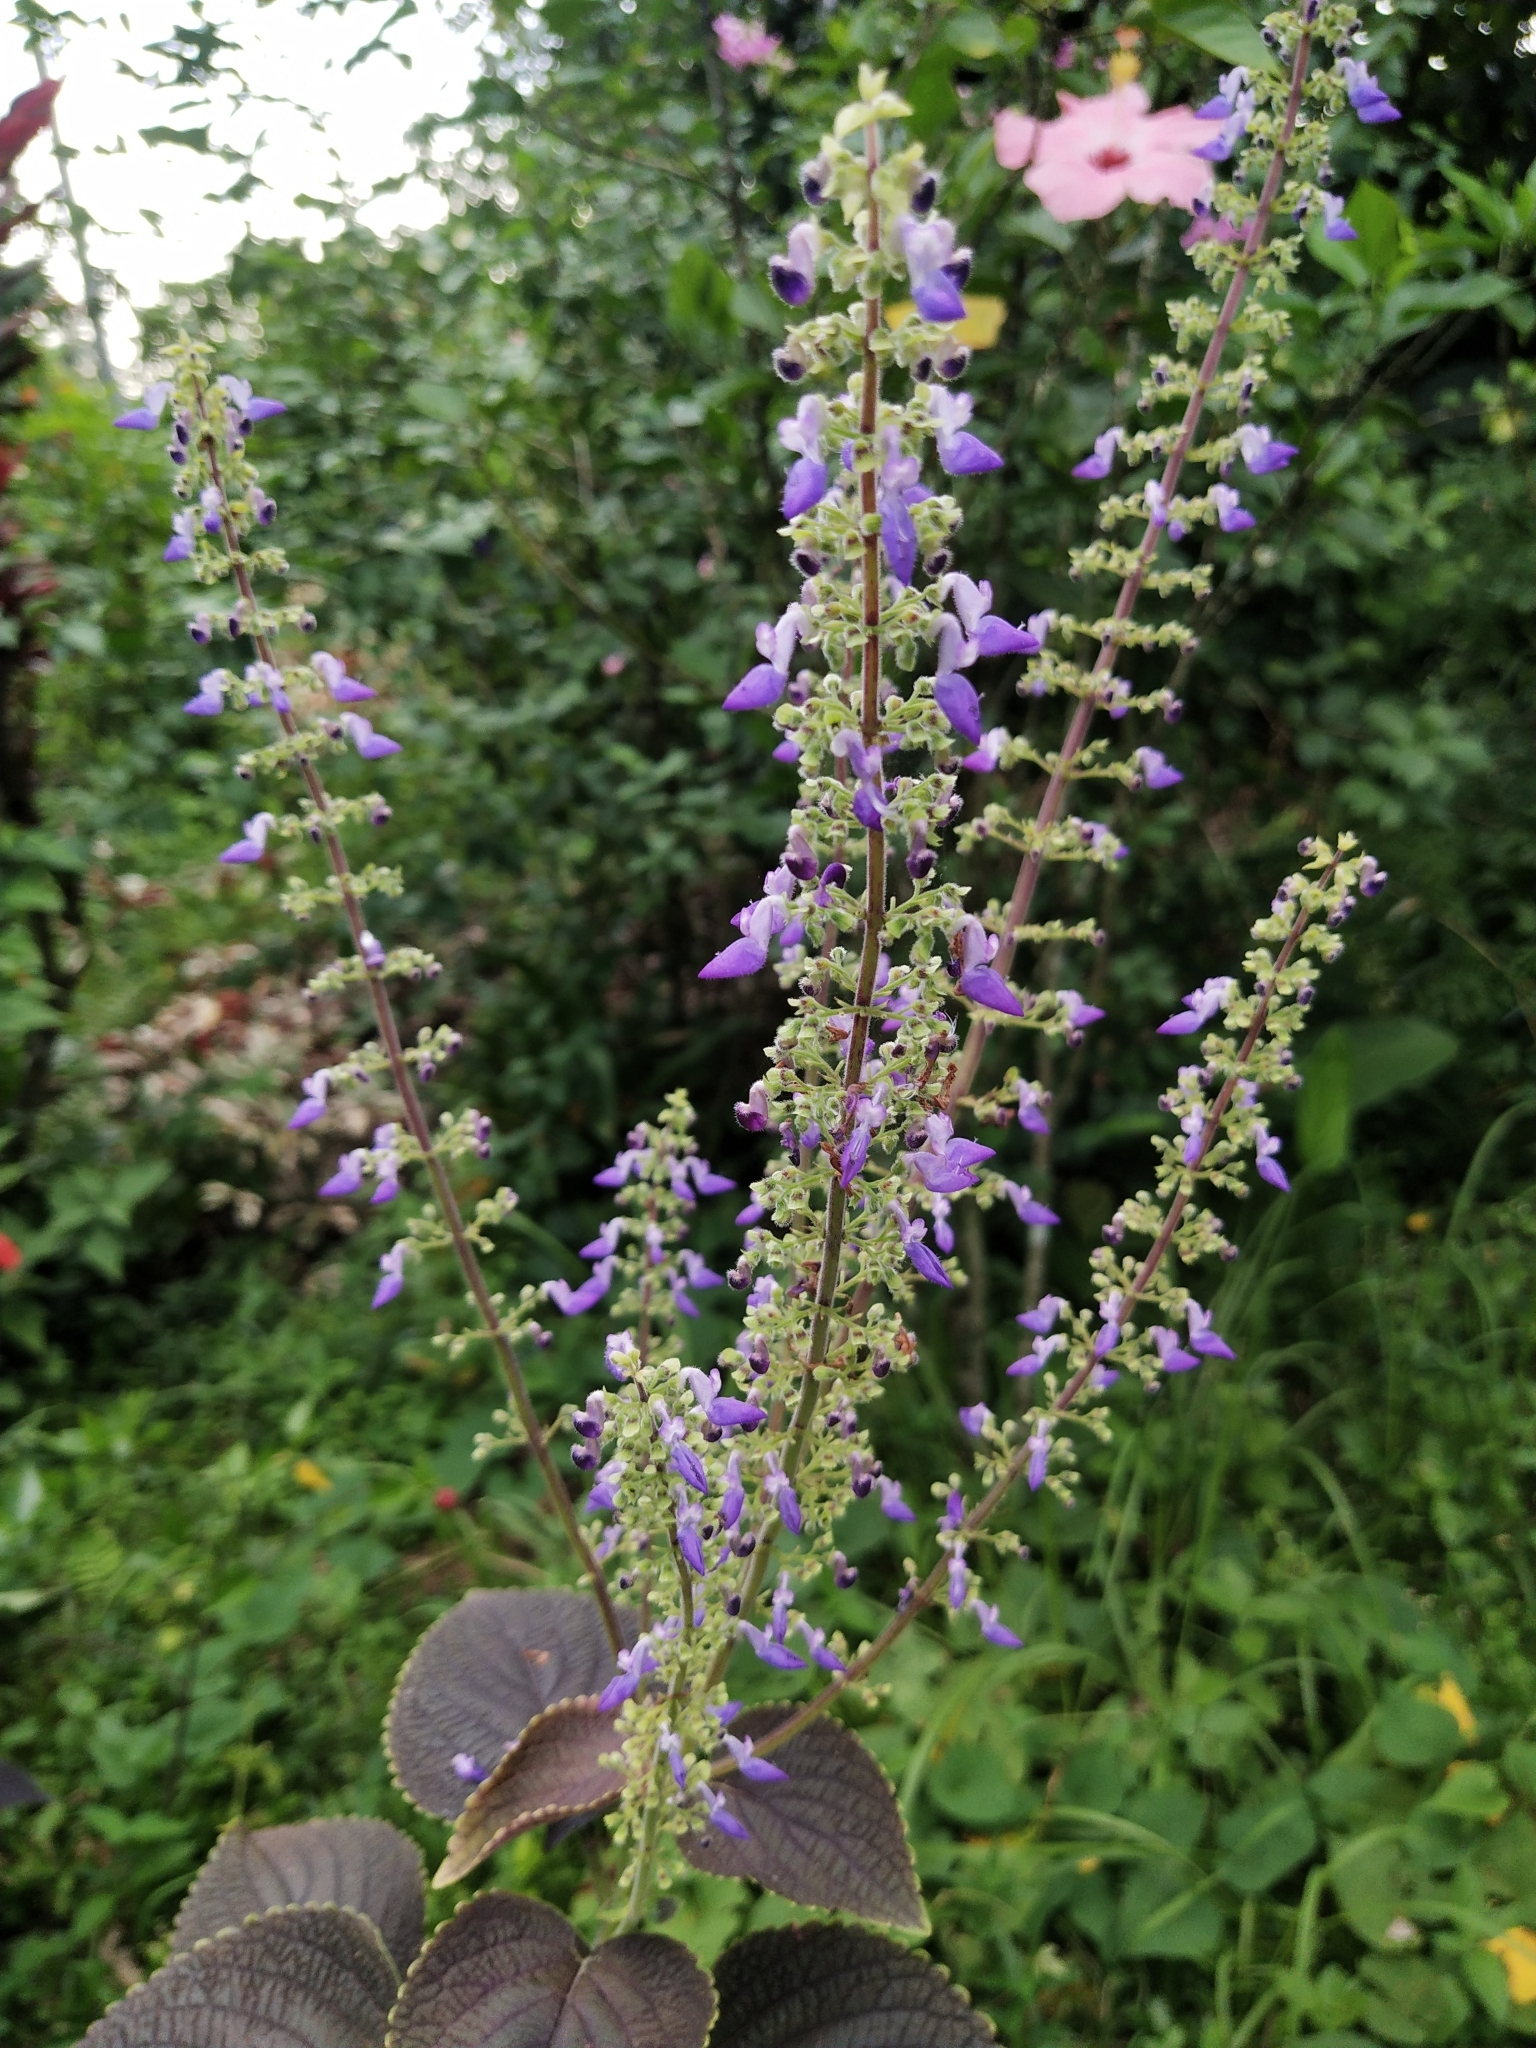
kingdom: Plantae
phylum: Tracheophyta
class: Magnoliopsida
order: Lamiales
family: Lamiaceae
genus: Coleus
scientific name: Coleus scutellarioides
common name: Coleus
